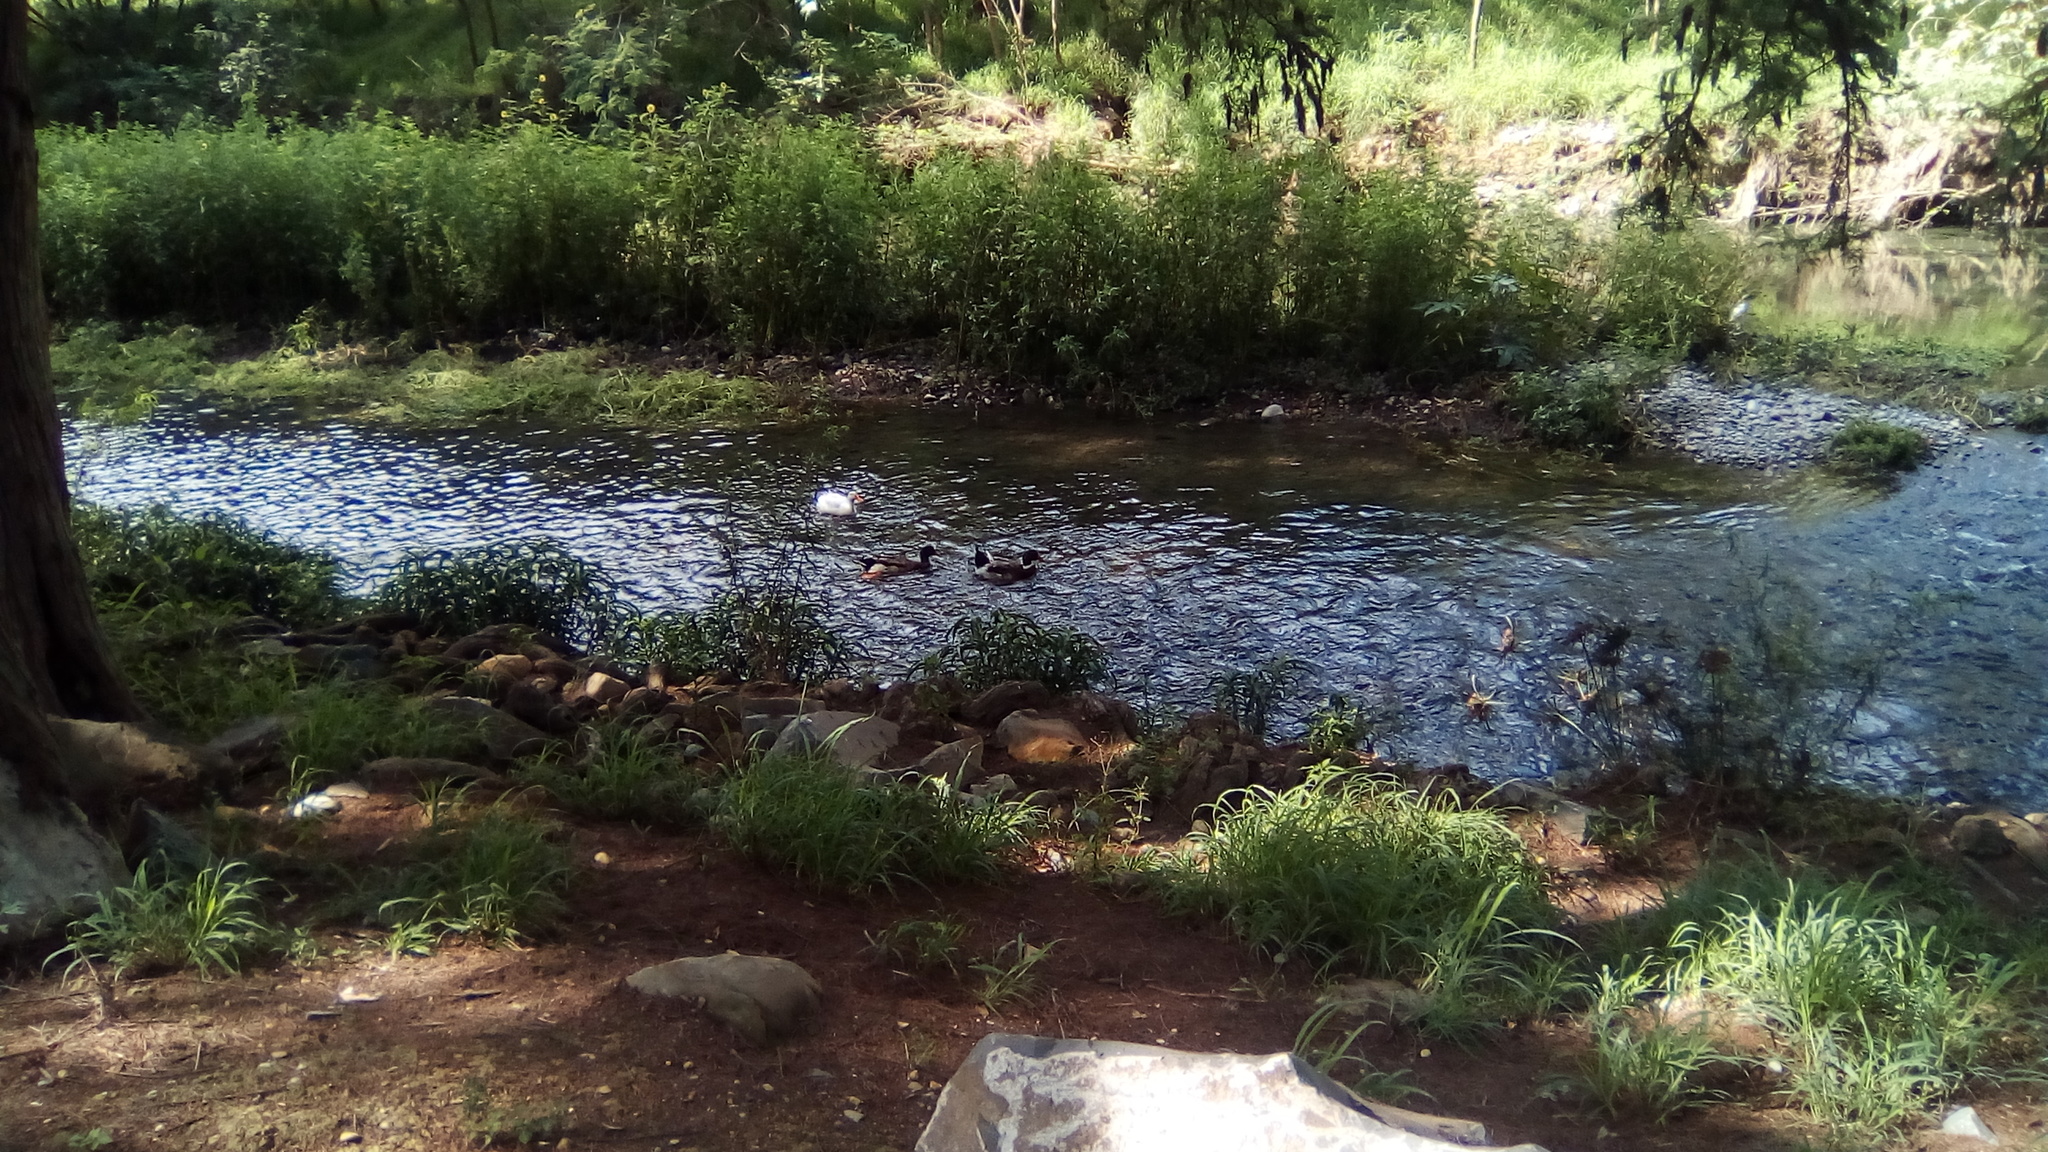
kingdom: Animalia
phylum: Chordata
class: Aves
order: Anseriformes
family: Anatidae
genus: Anas
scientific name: Anas platyrhynchos
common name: Mallard
